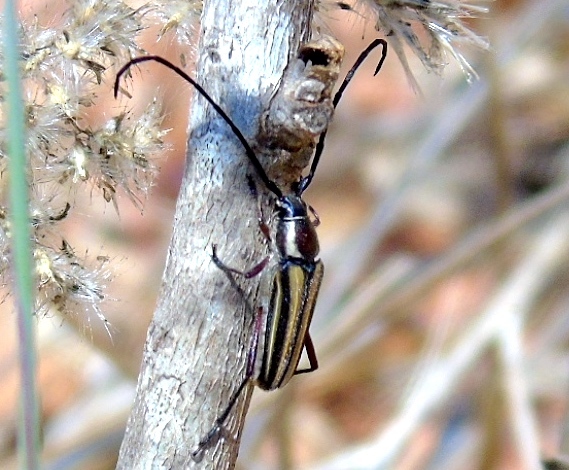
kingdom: Animalia
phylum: Arthropoda
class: Insecta
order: Coleoptera
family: Cerambycidae
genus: Sphaenothecus
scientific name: Sphaenothecus bilineatus
